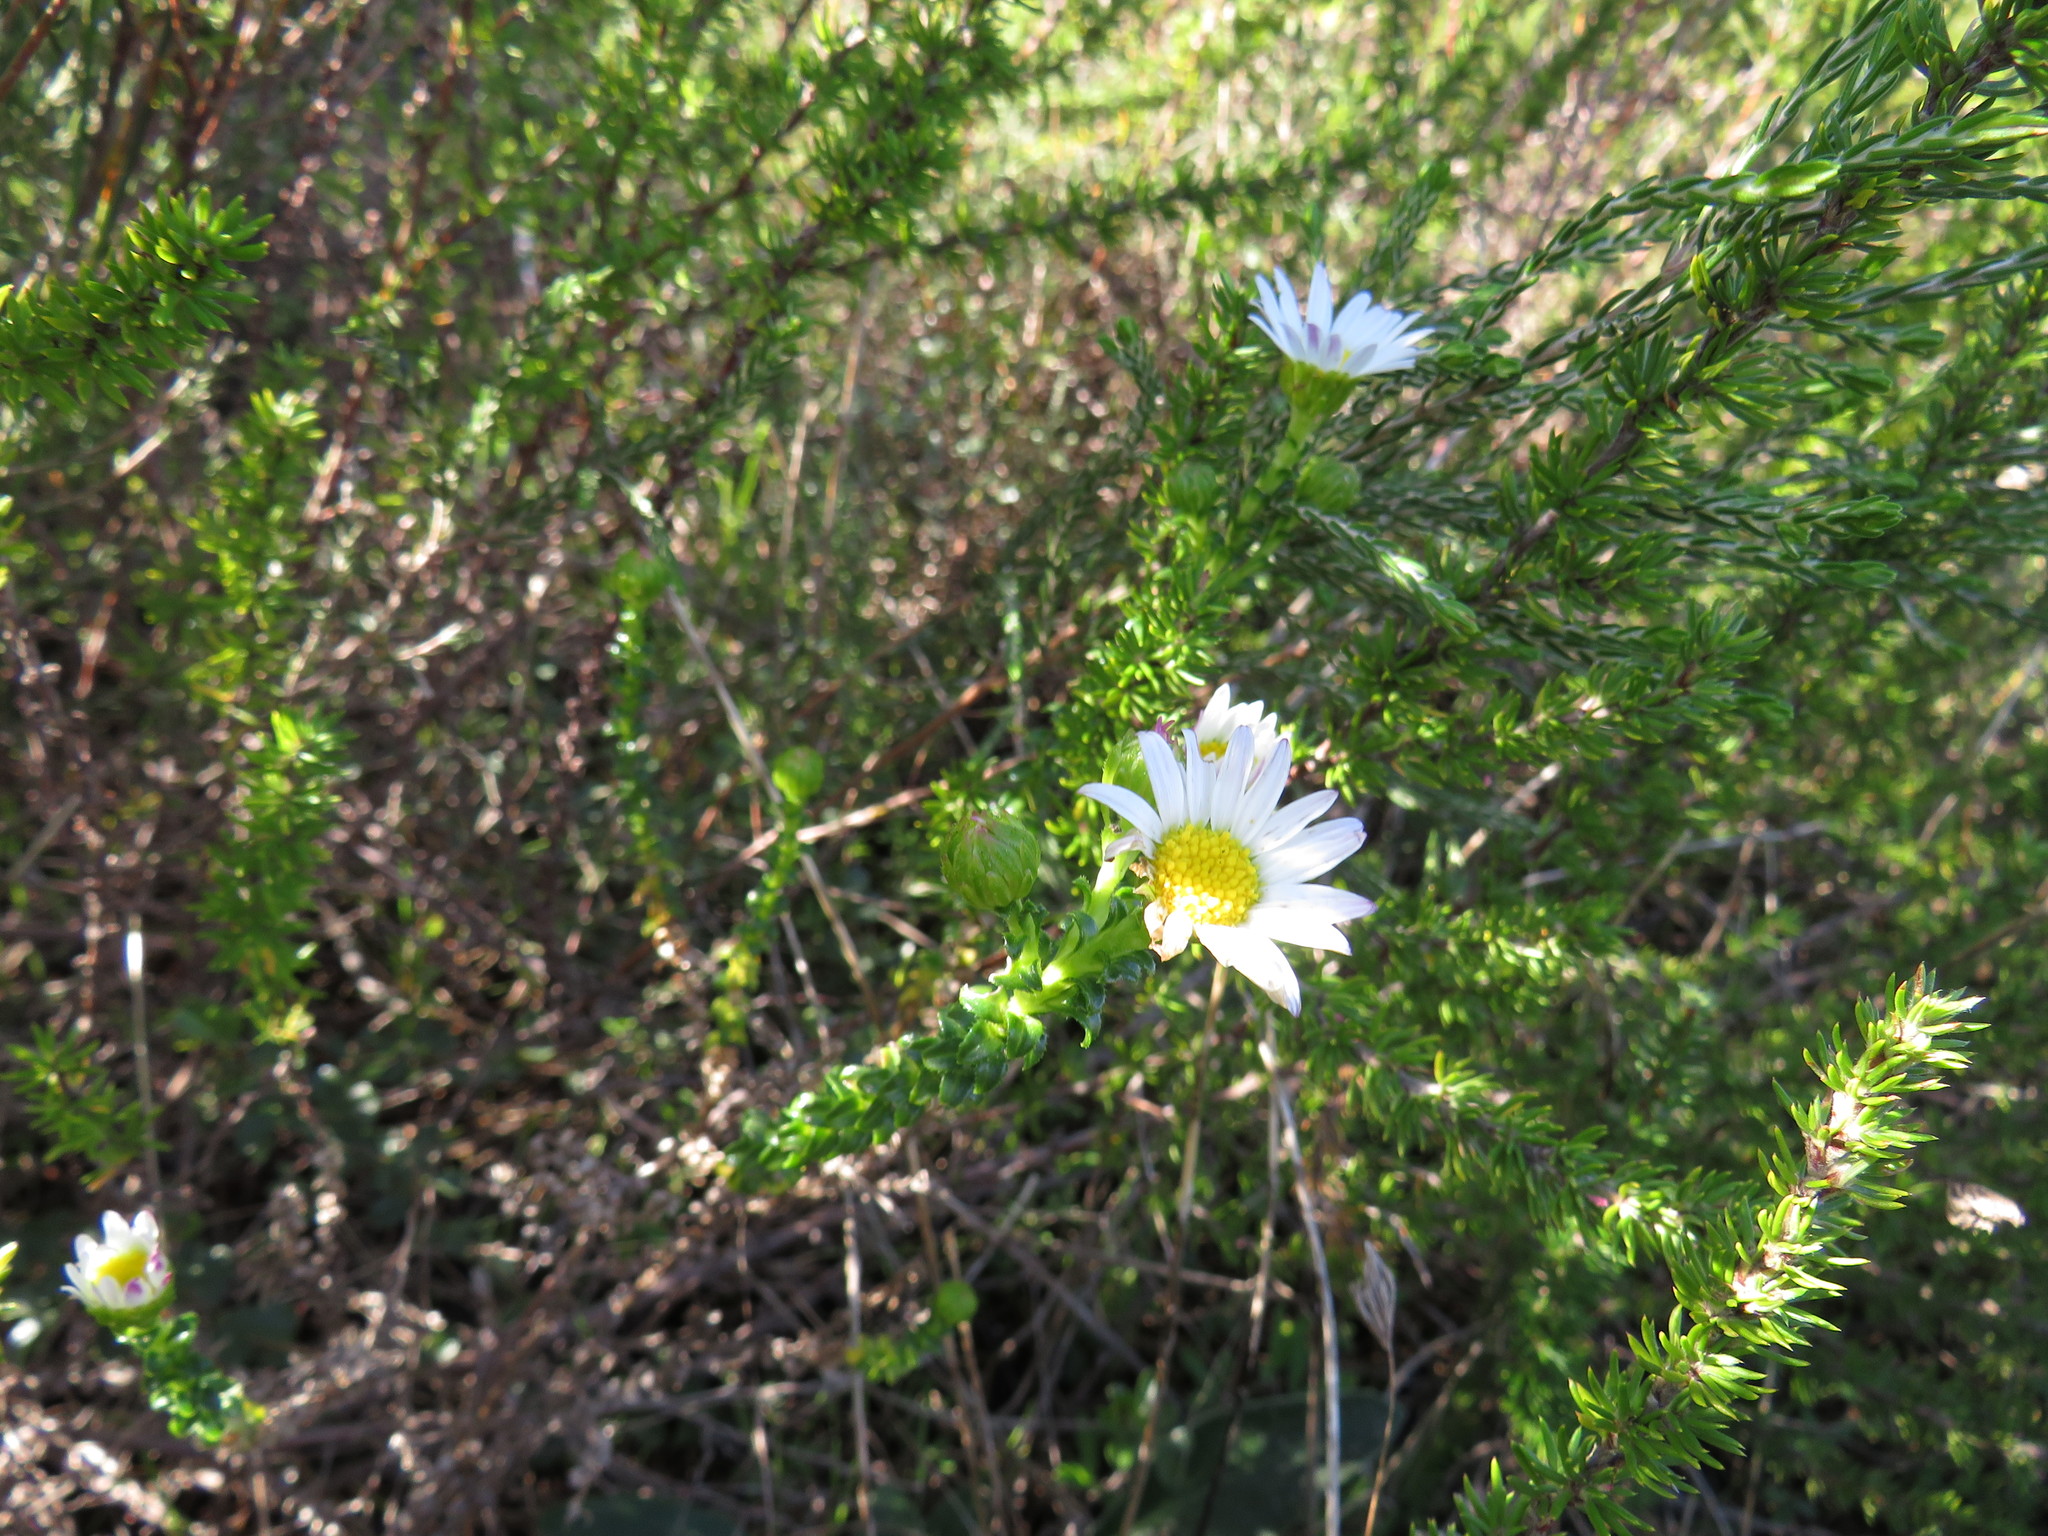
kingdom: Plantae
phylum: Tracheophyta
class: Magnoliopsida
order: Asterales
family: Asteraceae
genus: Polyarrhena
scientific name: Polyarrhena reflexa
